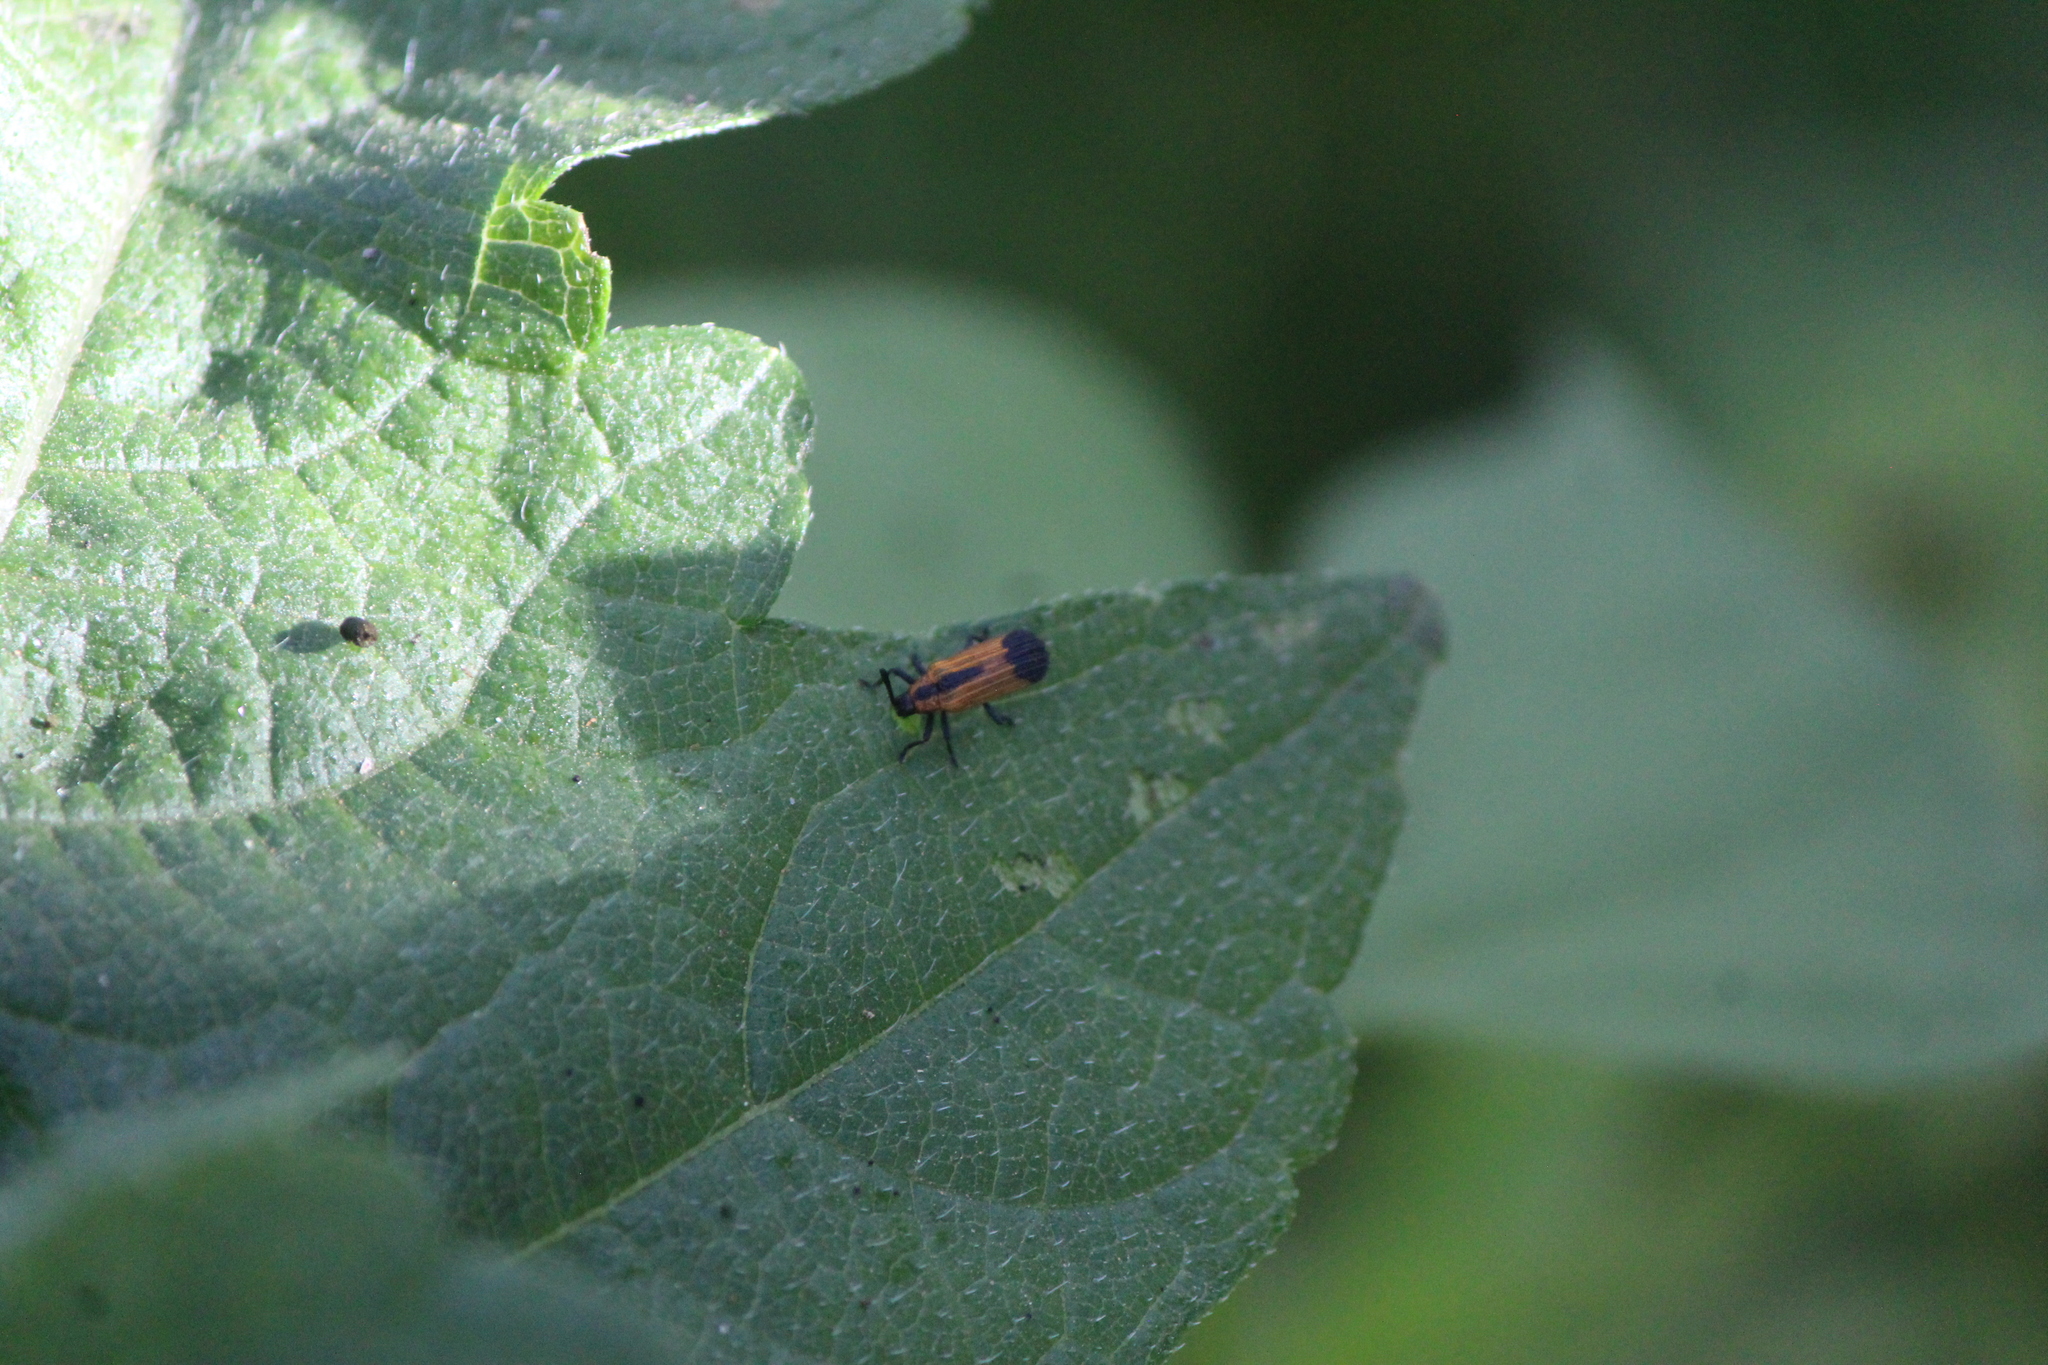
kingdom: Animalia
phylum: Arthropoda
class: Insecta
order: Coleoptera
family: Chrysomelidae
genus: Pentispa
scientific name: Pentispa melanura
